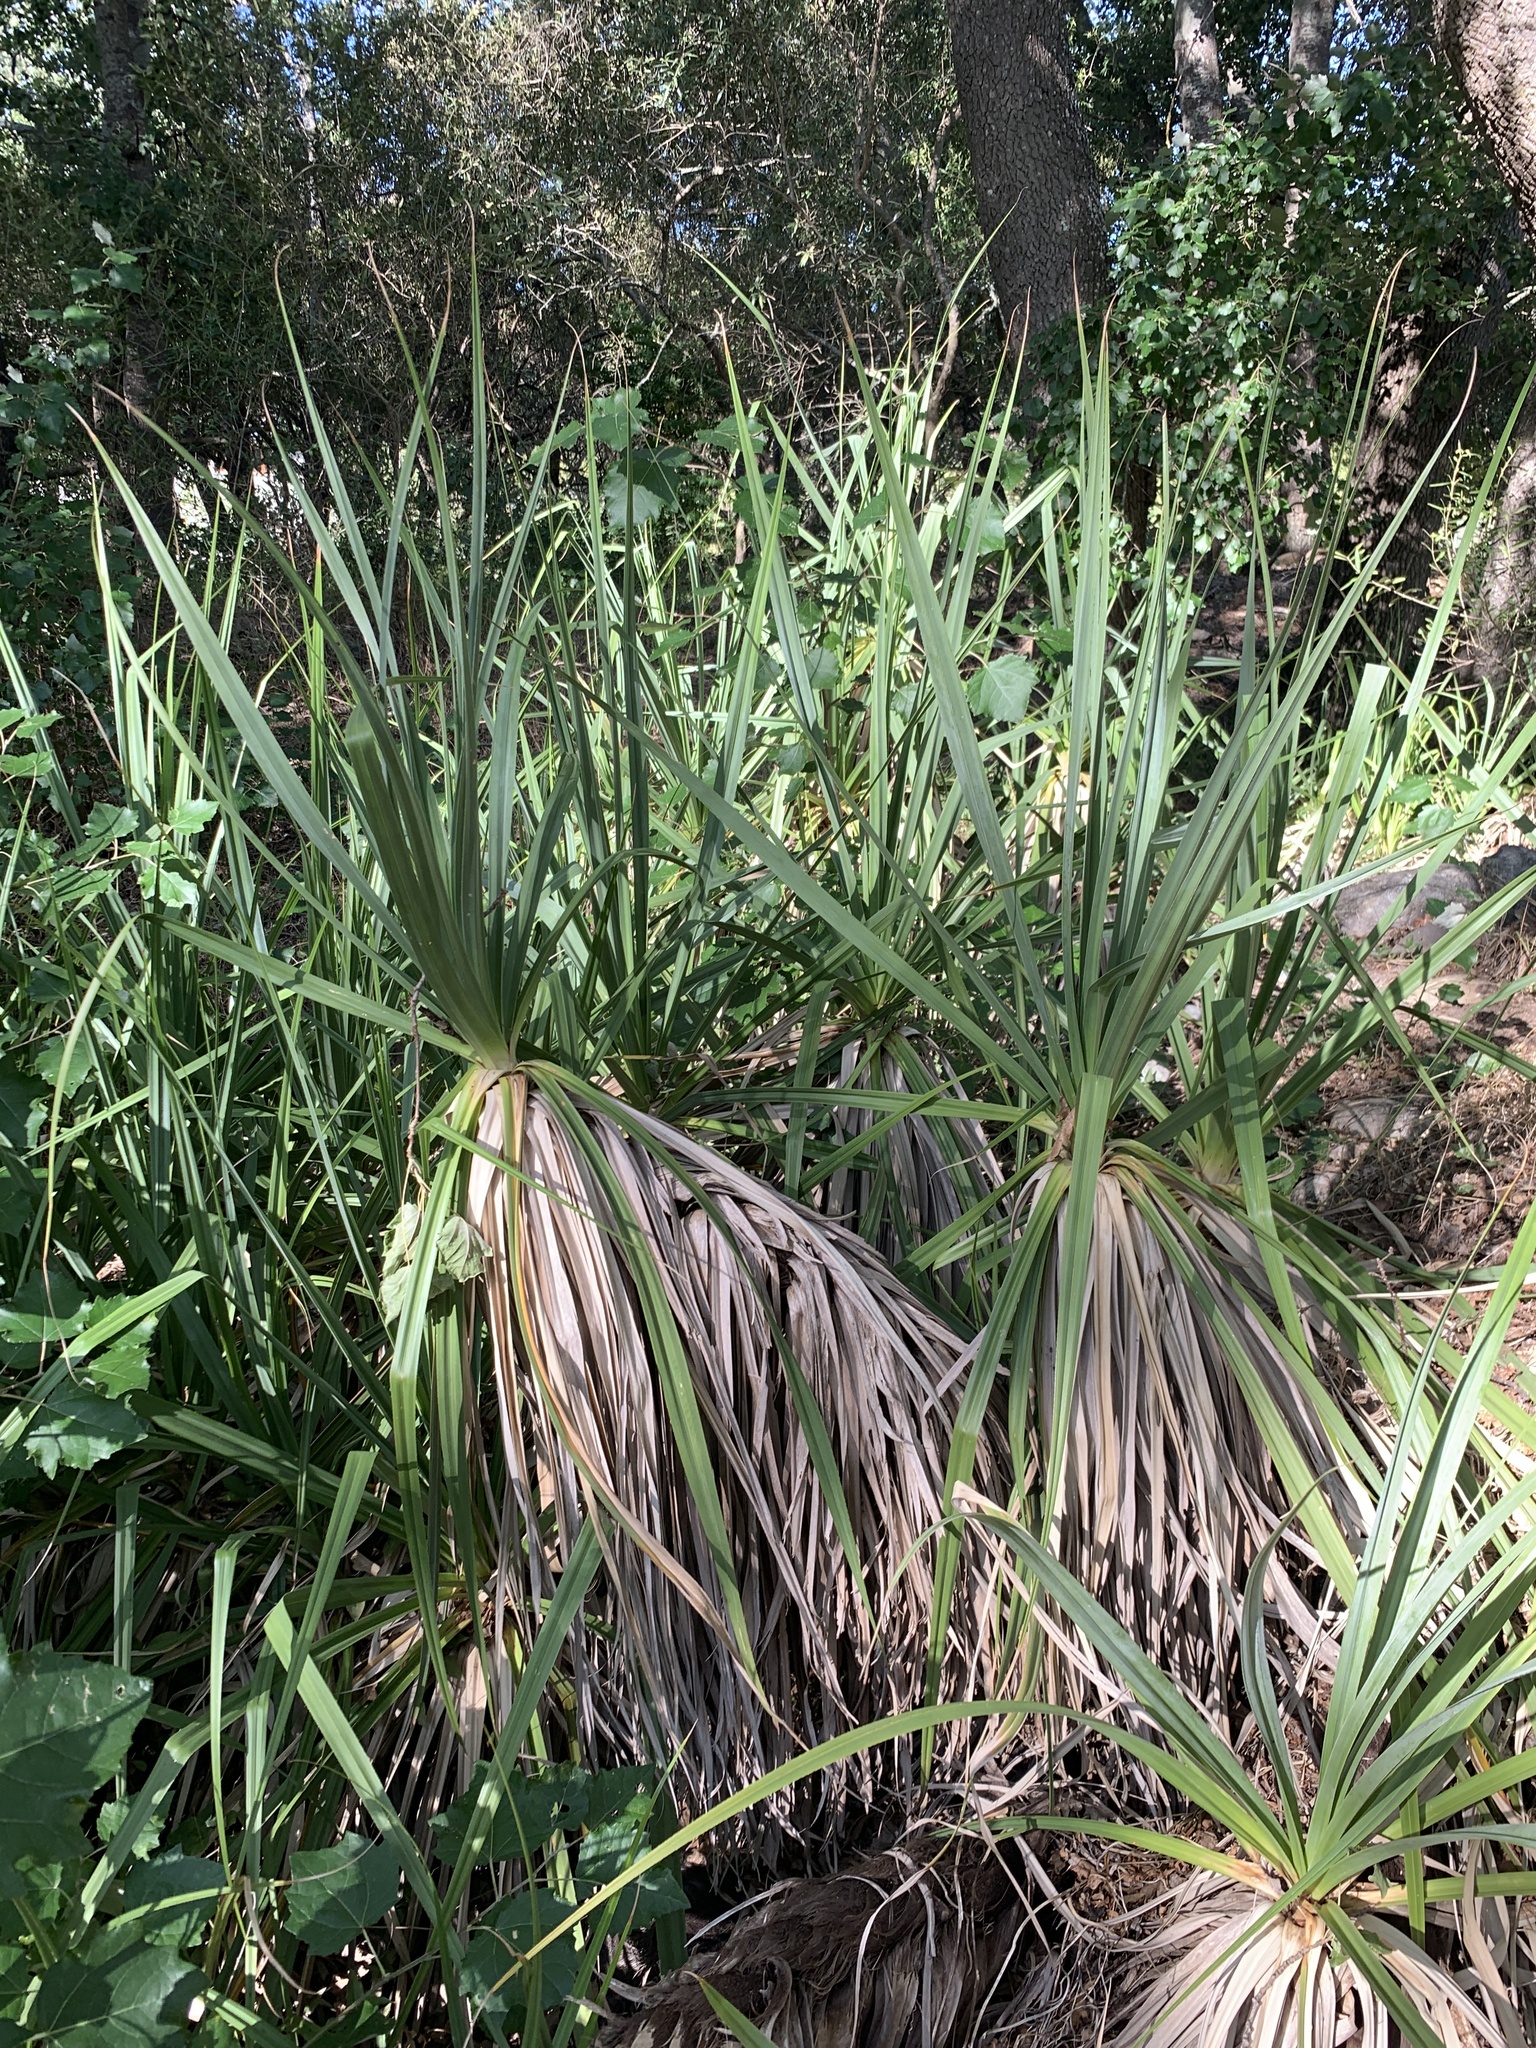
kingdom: Plantae
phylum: Tracheophyta
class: Liliopsida
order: Poales
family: Thurniaceae
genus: Prionium
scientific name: Prionium serratum
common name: Palmiet
